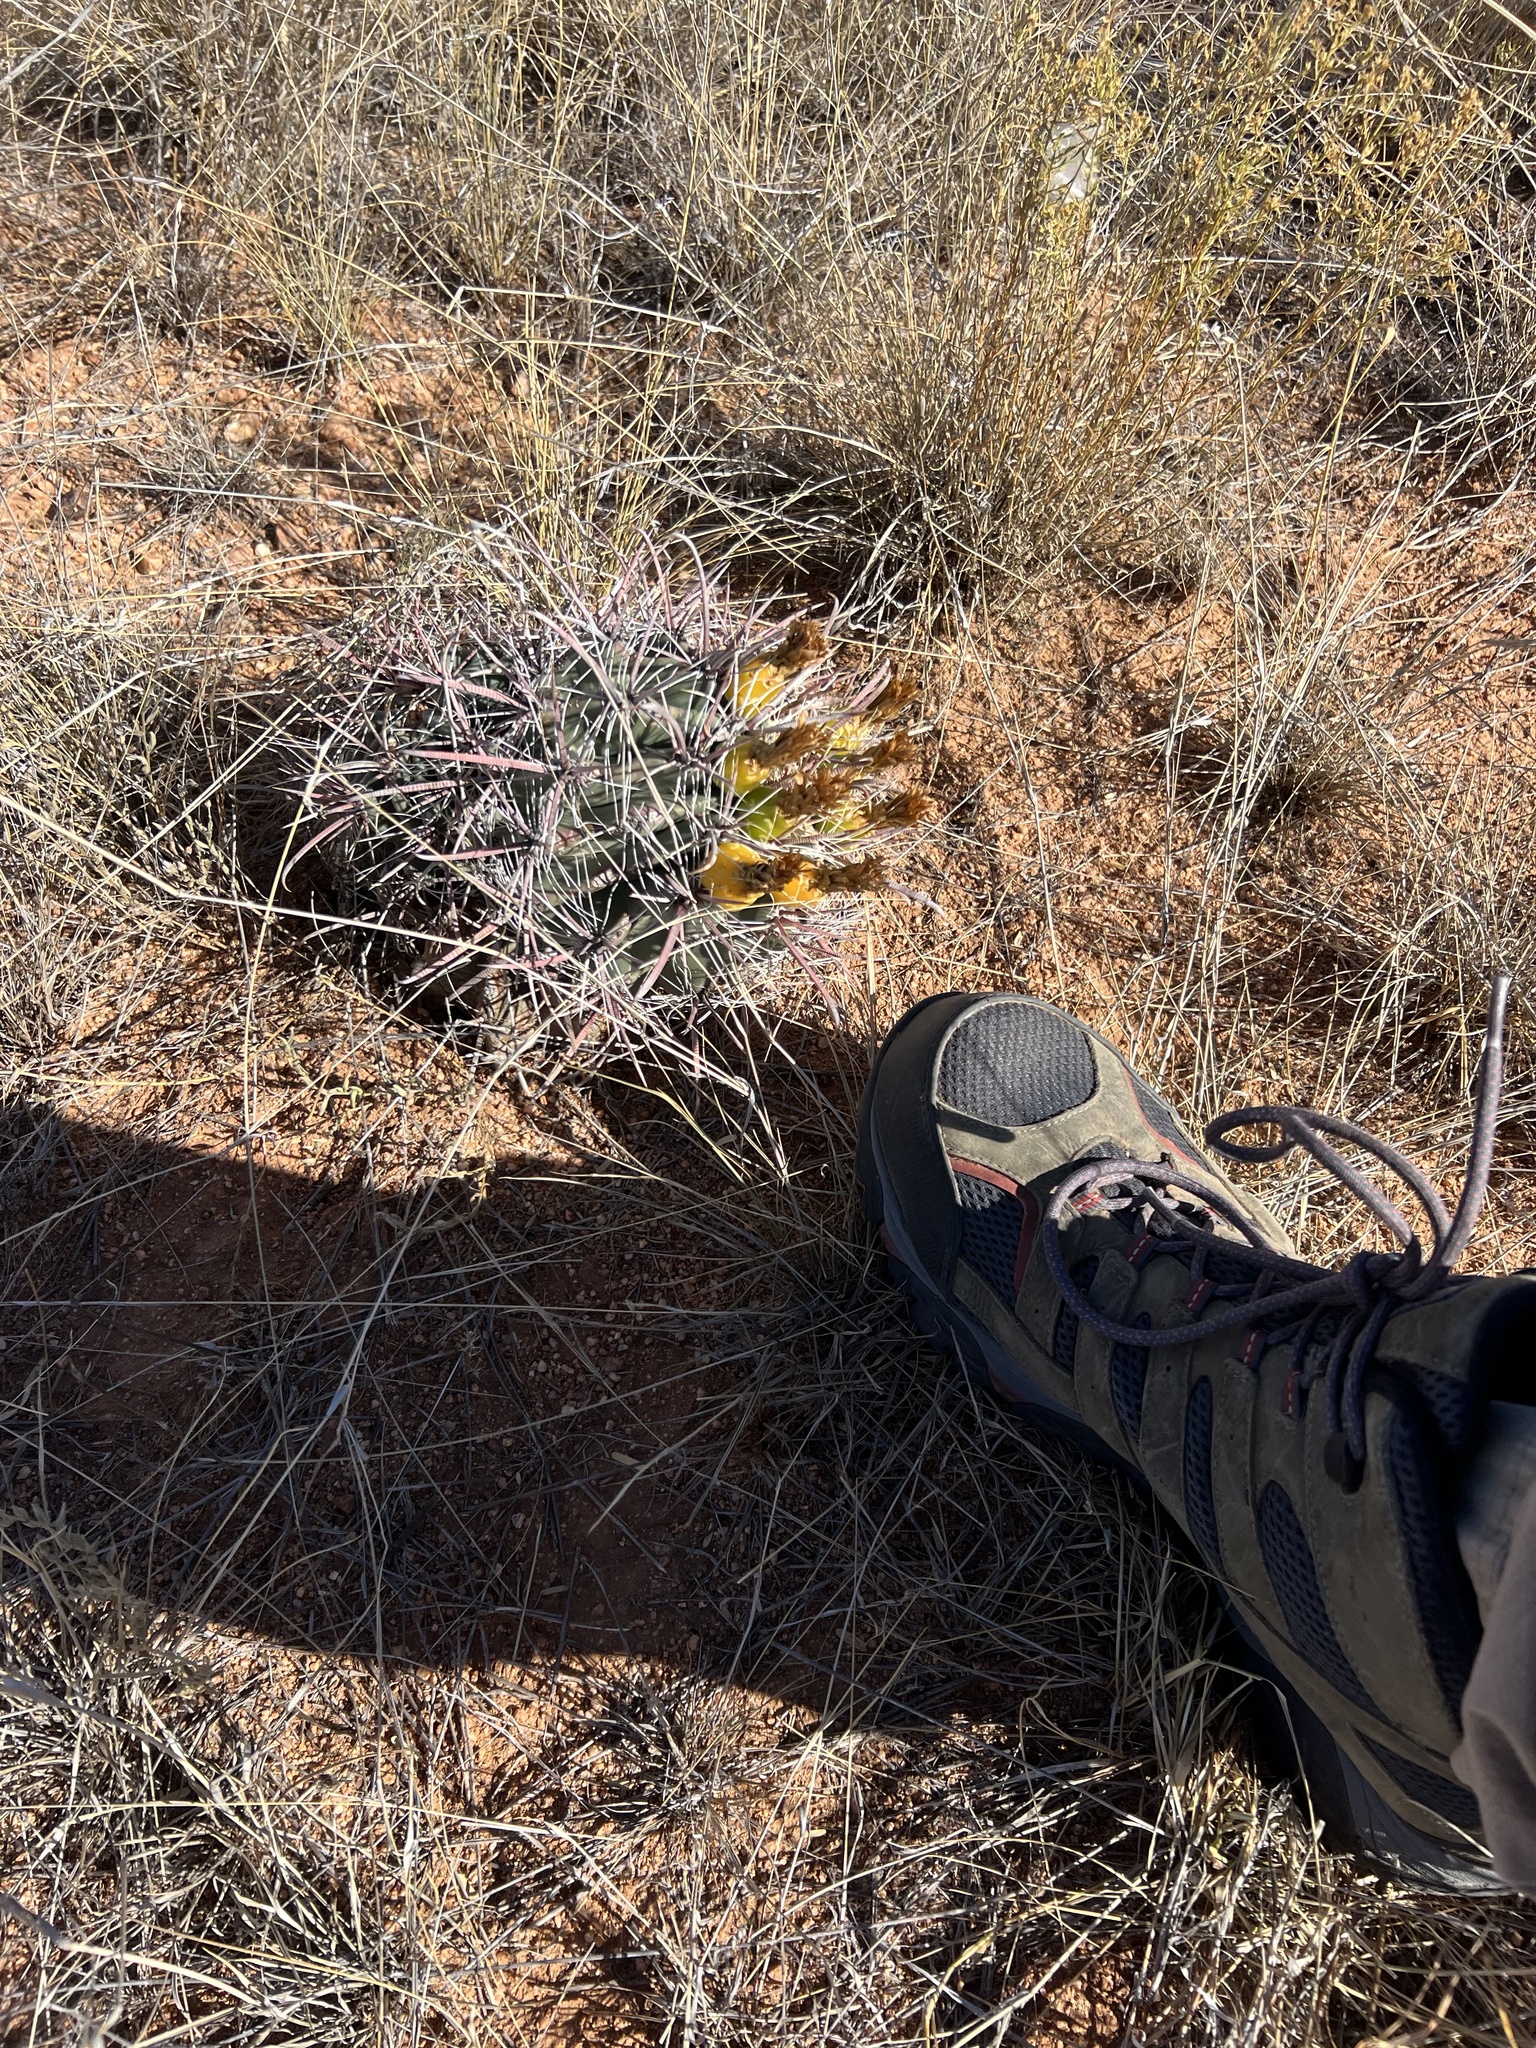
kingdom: Plantae
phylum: Tracheophyta
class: Magnoliopsida
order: Caryophyllales
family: Cactaceae
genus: Ferocactus
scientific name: Ferocactus wislizeni
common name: Candy barrel cactus
